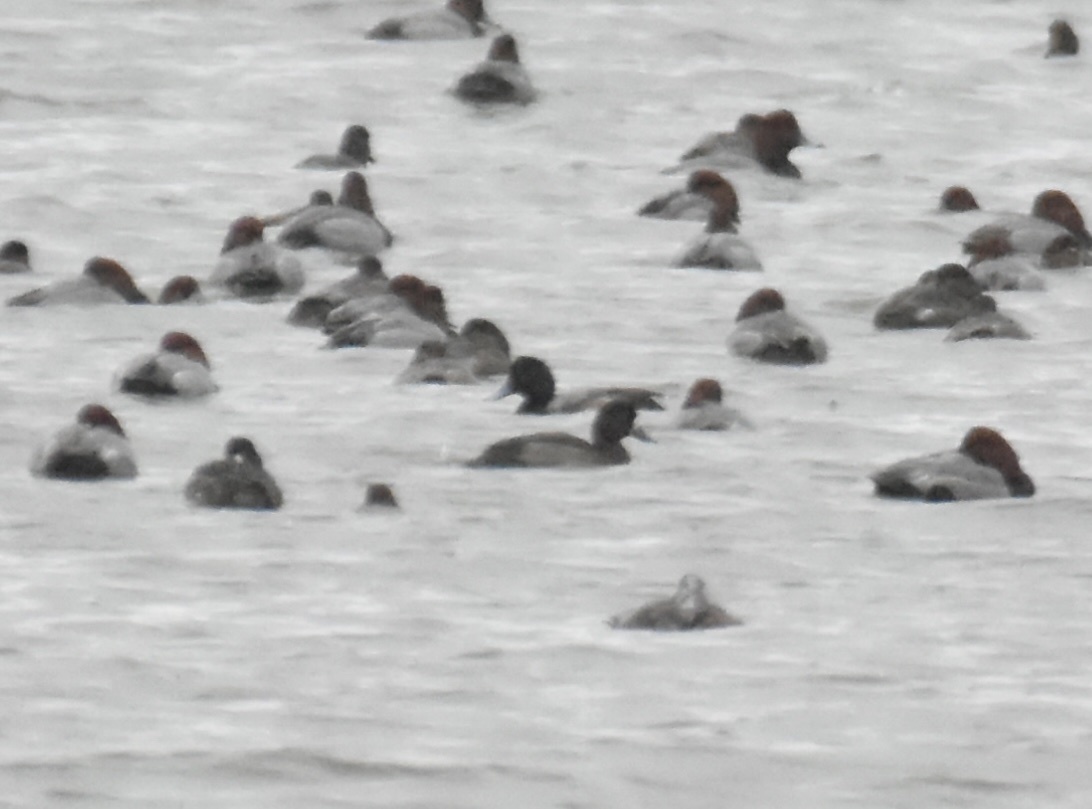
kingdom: Animalia
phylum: Chordata
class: Aves
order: Anseriformes
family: Anatidae
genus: Aythya
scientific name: Aythya marila
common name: Greater scaup
